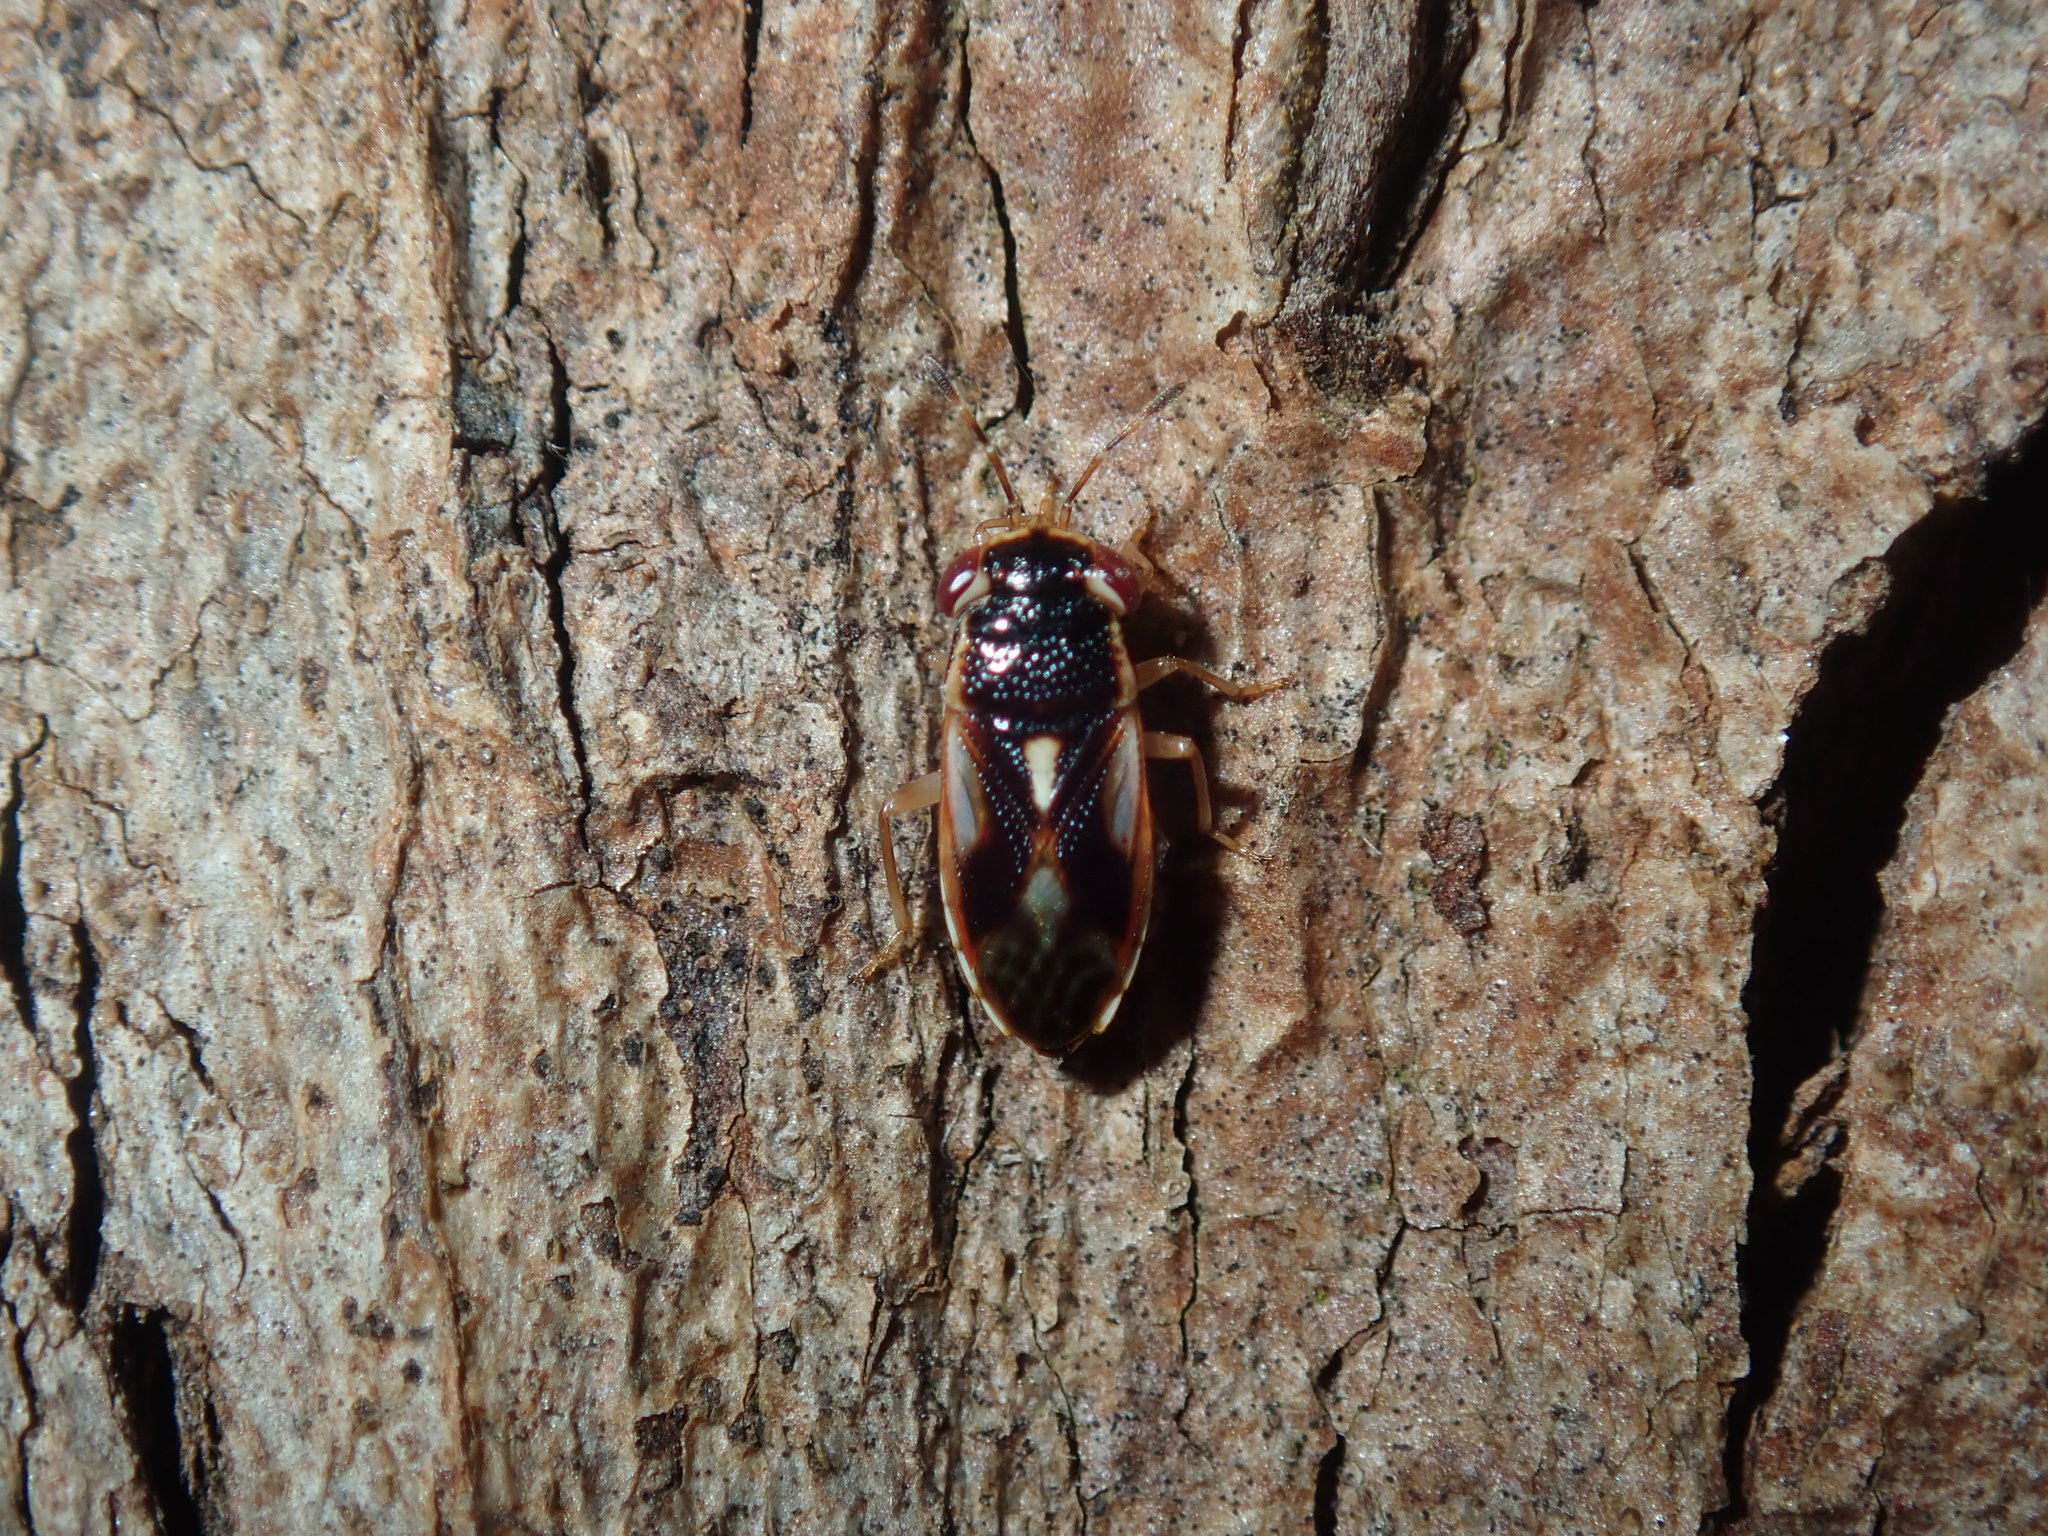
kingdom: Animalia
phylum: Arthropoda
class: Insecta
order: Hemiptera
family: Geocoridae
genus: Stylogeocoris
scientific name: Stylogeocoris elongatus
